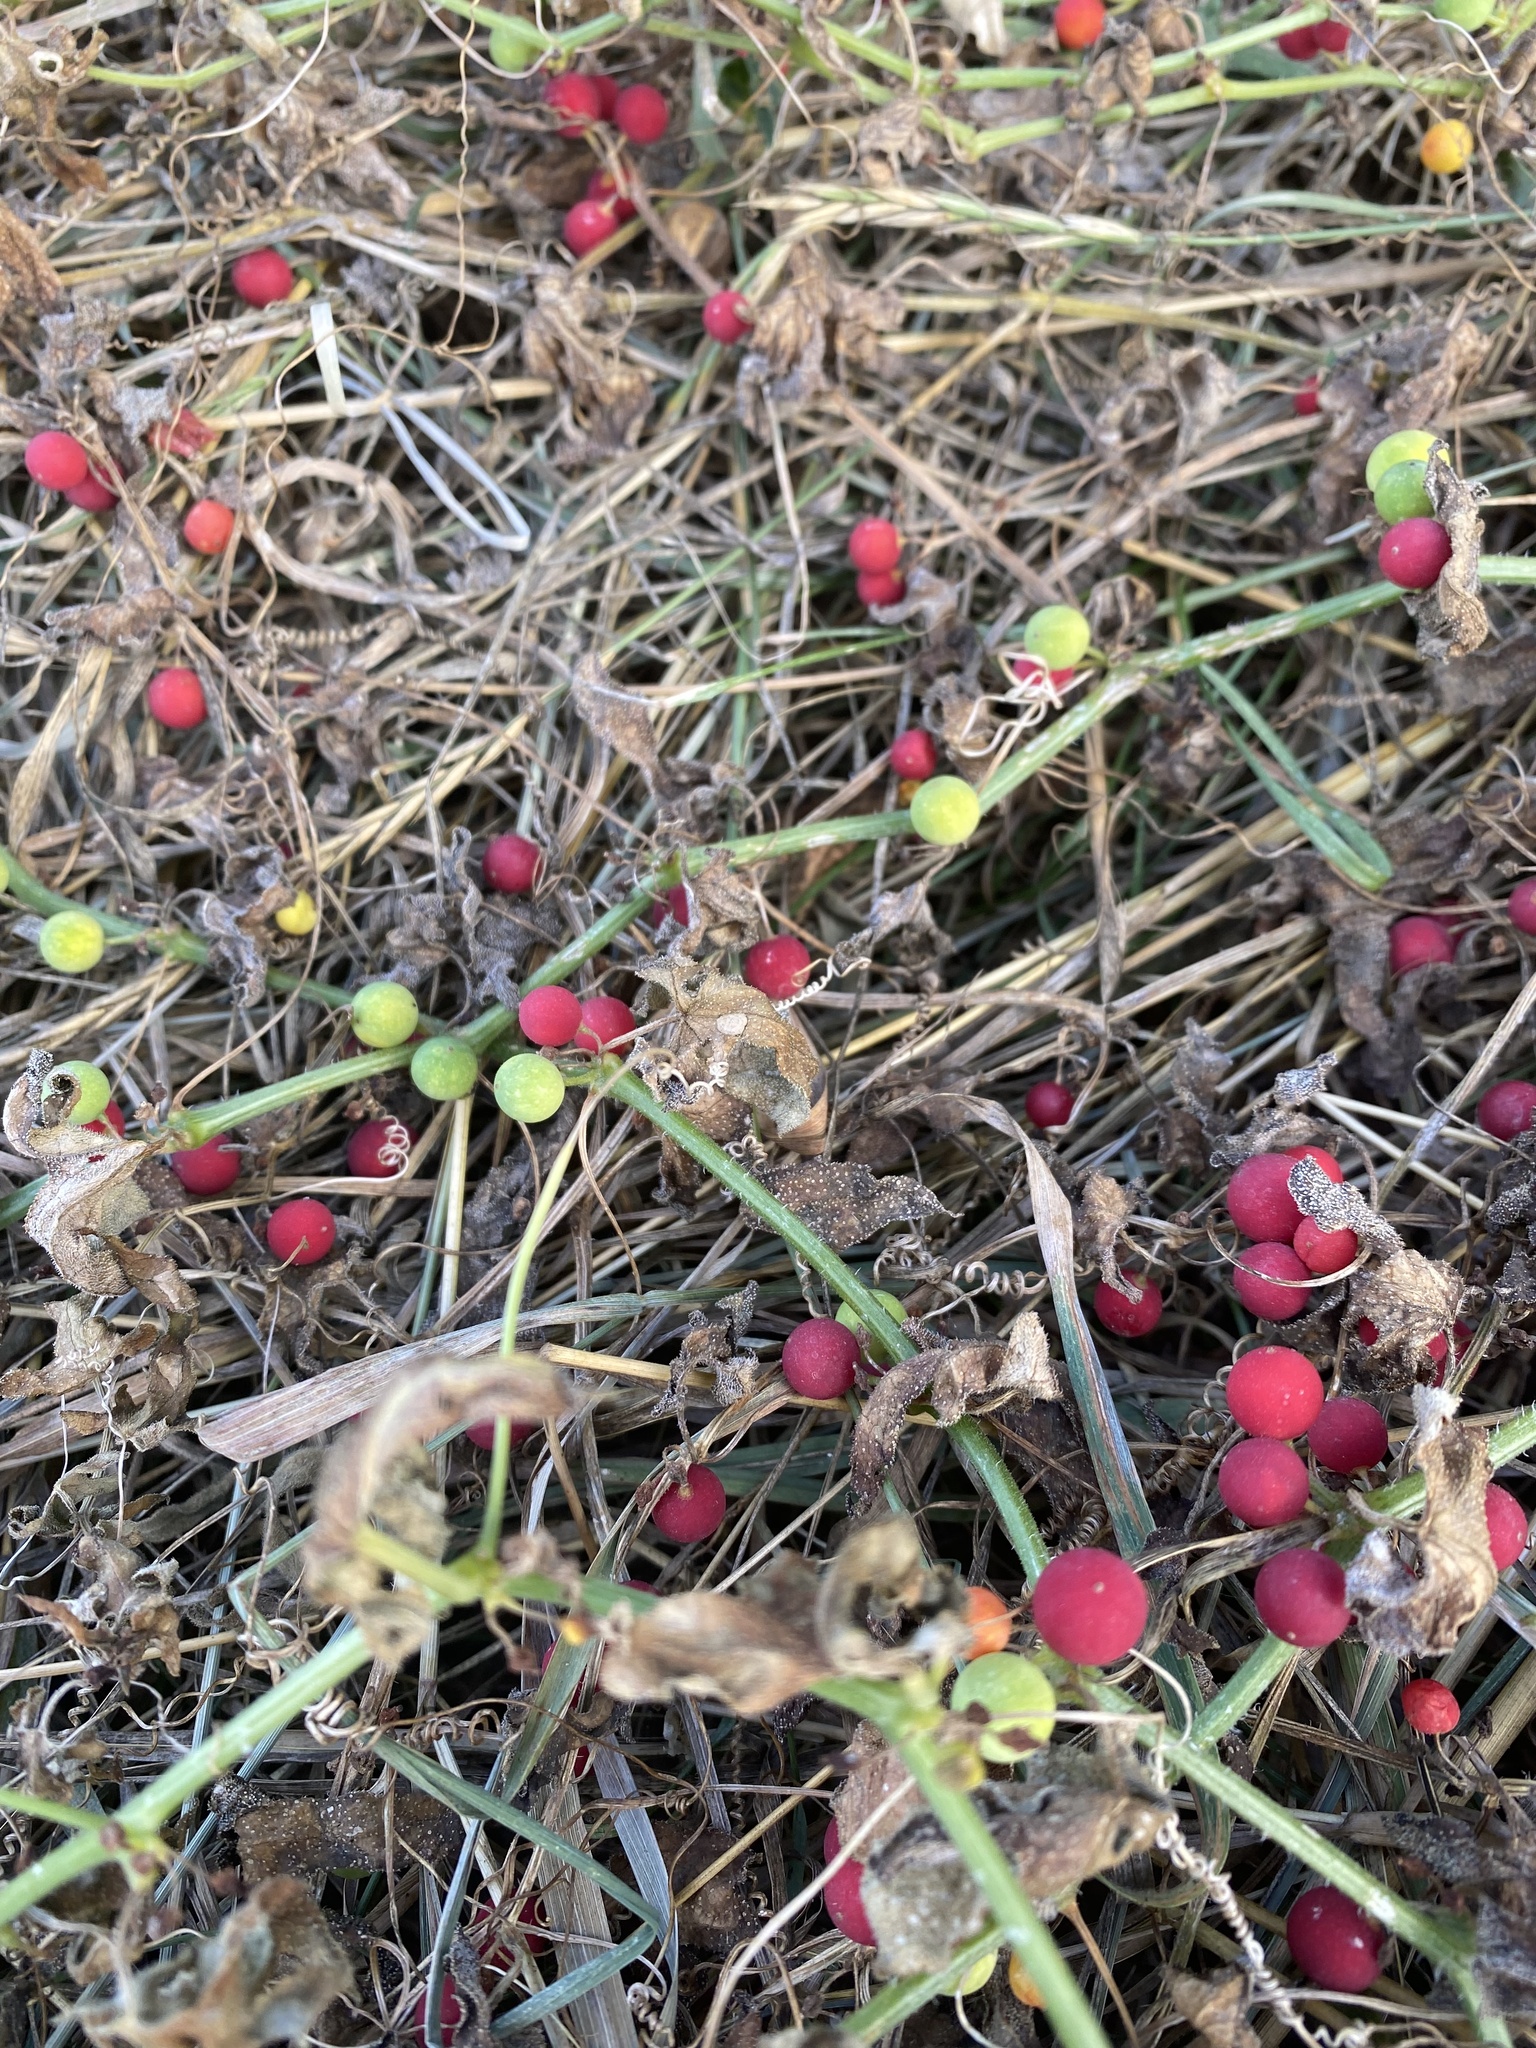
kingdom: Plantae
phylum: Tracheophyta
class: Magnoliopsida
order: Cucurbitales
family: Cucurbitaceae
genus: Bryonia
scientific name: Bryonia cretica
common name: Cretan bryony
